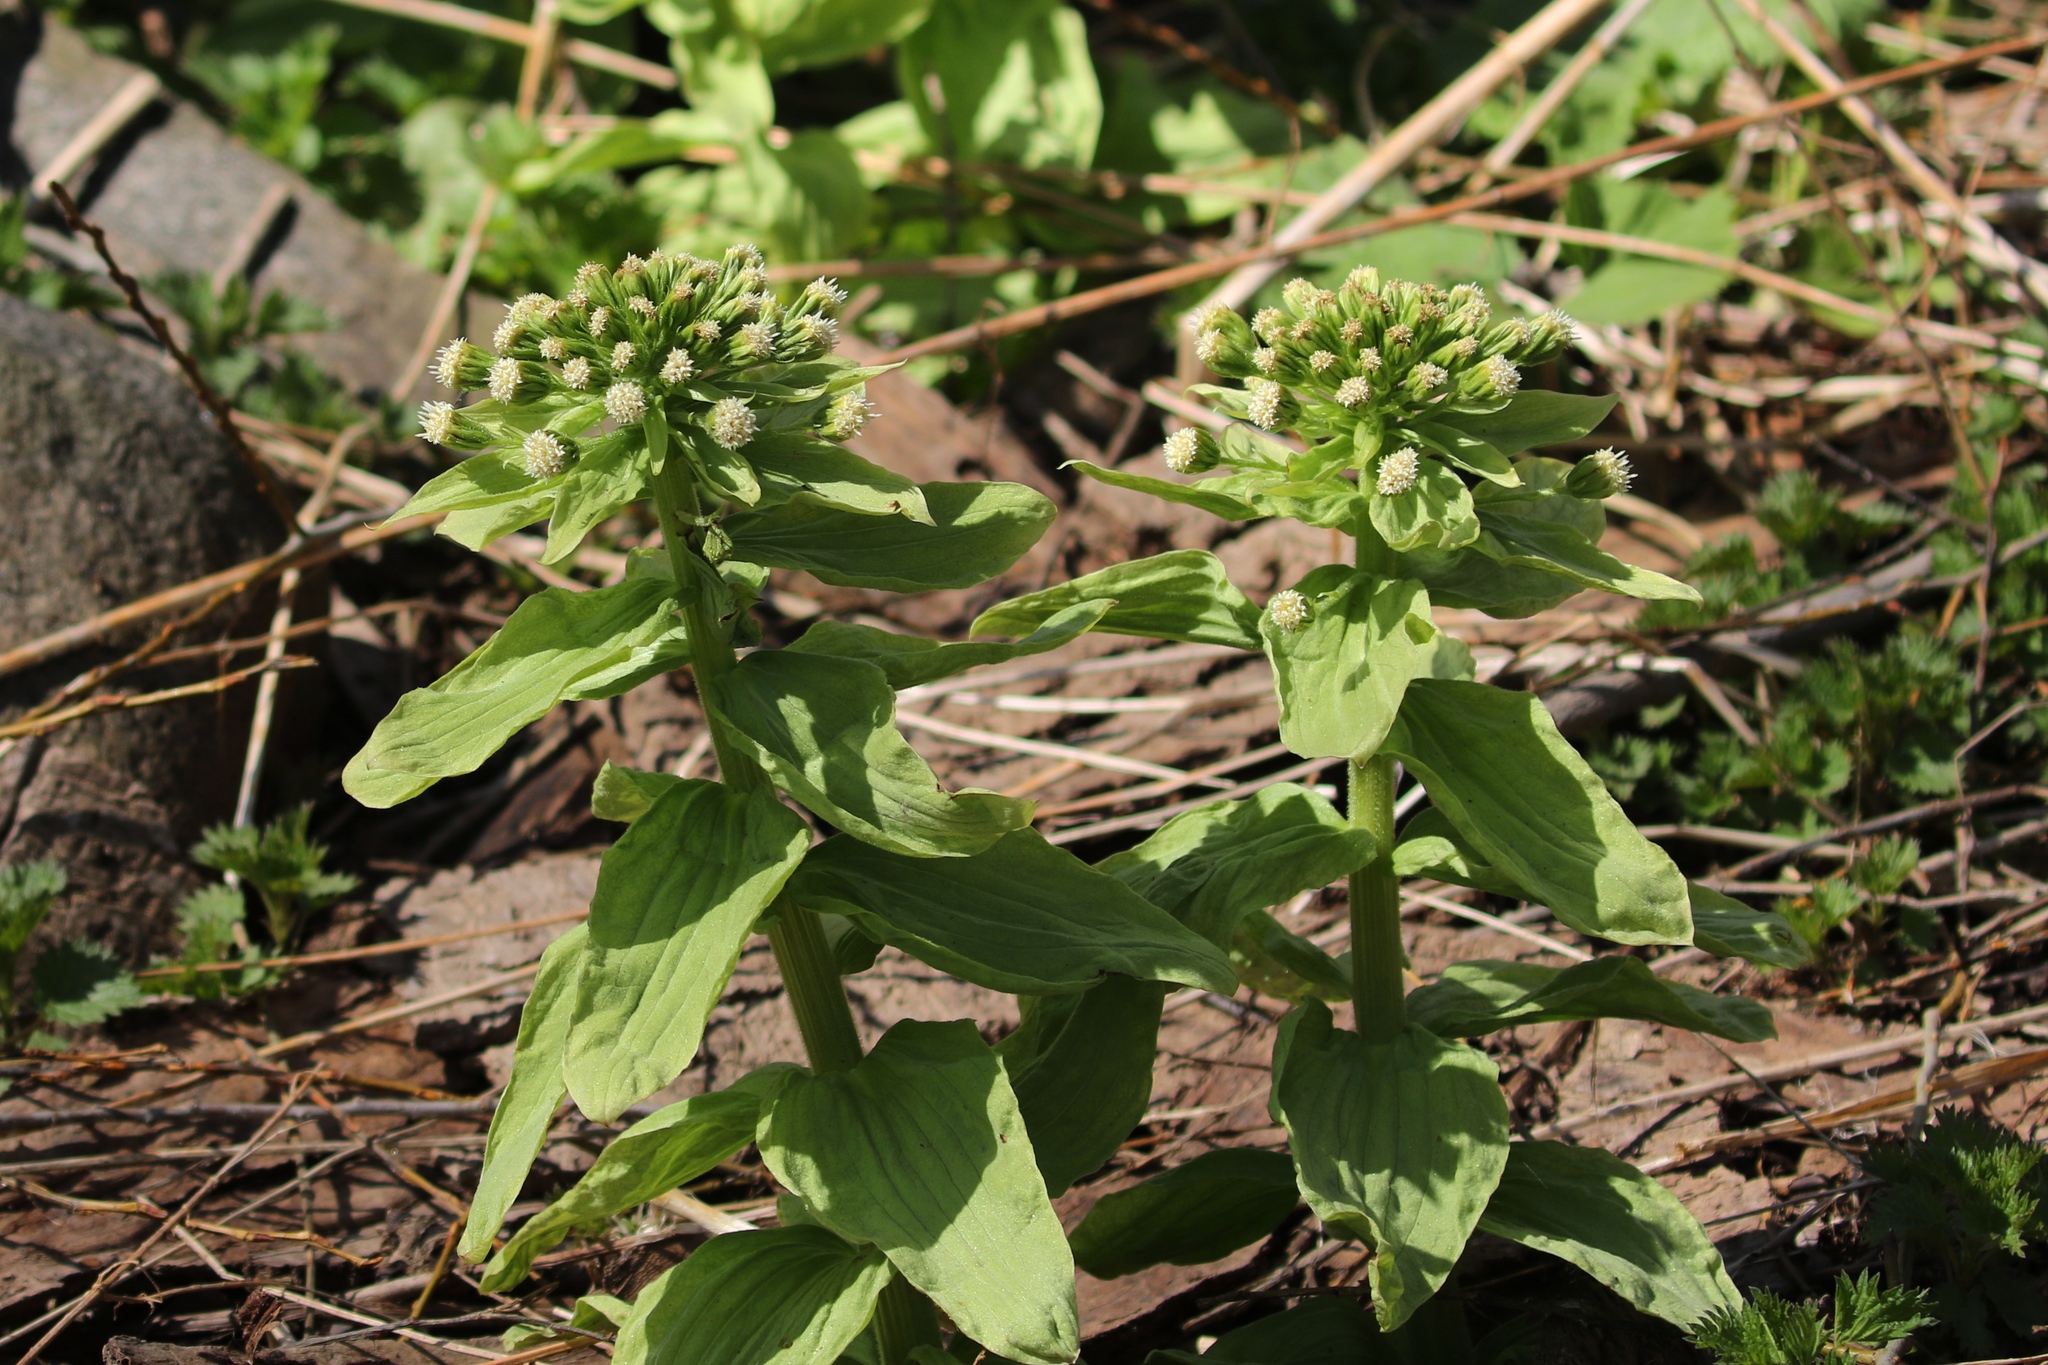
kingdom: Plantae
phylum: Tracheophyta
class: Magnoliopsida
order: Asterales
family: Asteraceae
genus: Petasites
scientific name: Petasites japonicus
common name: Giant butterbur
